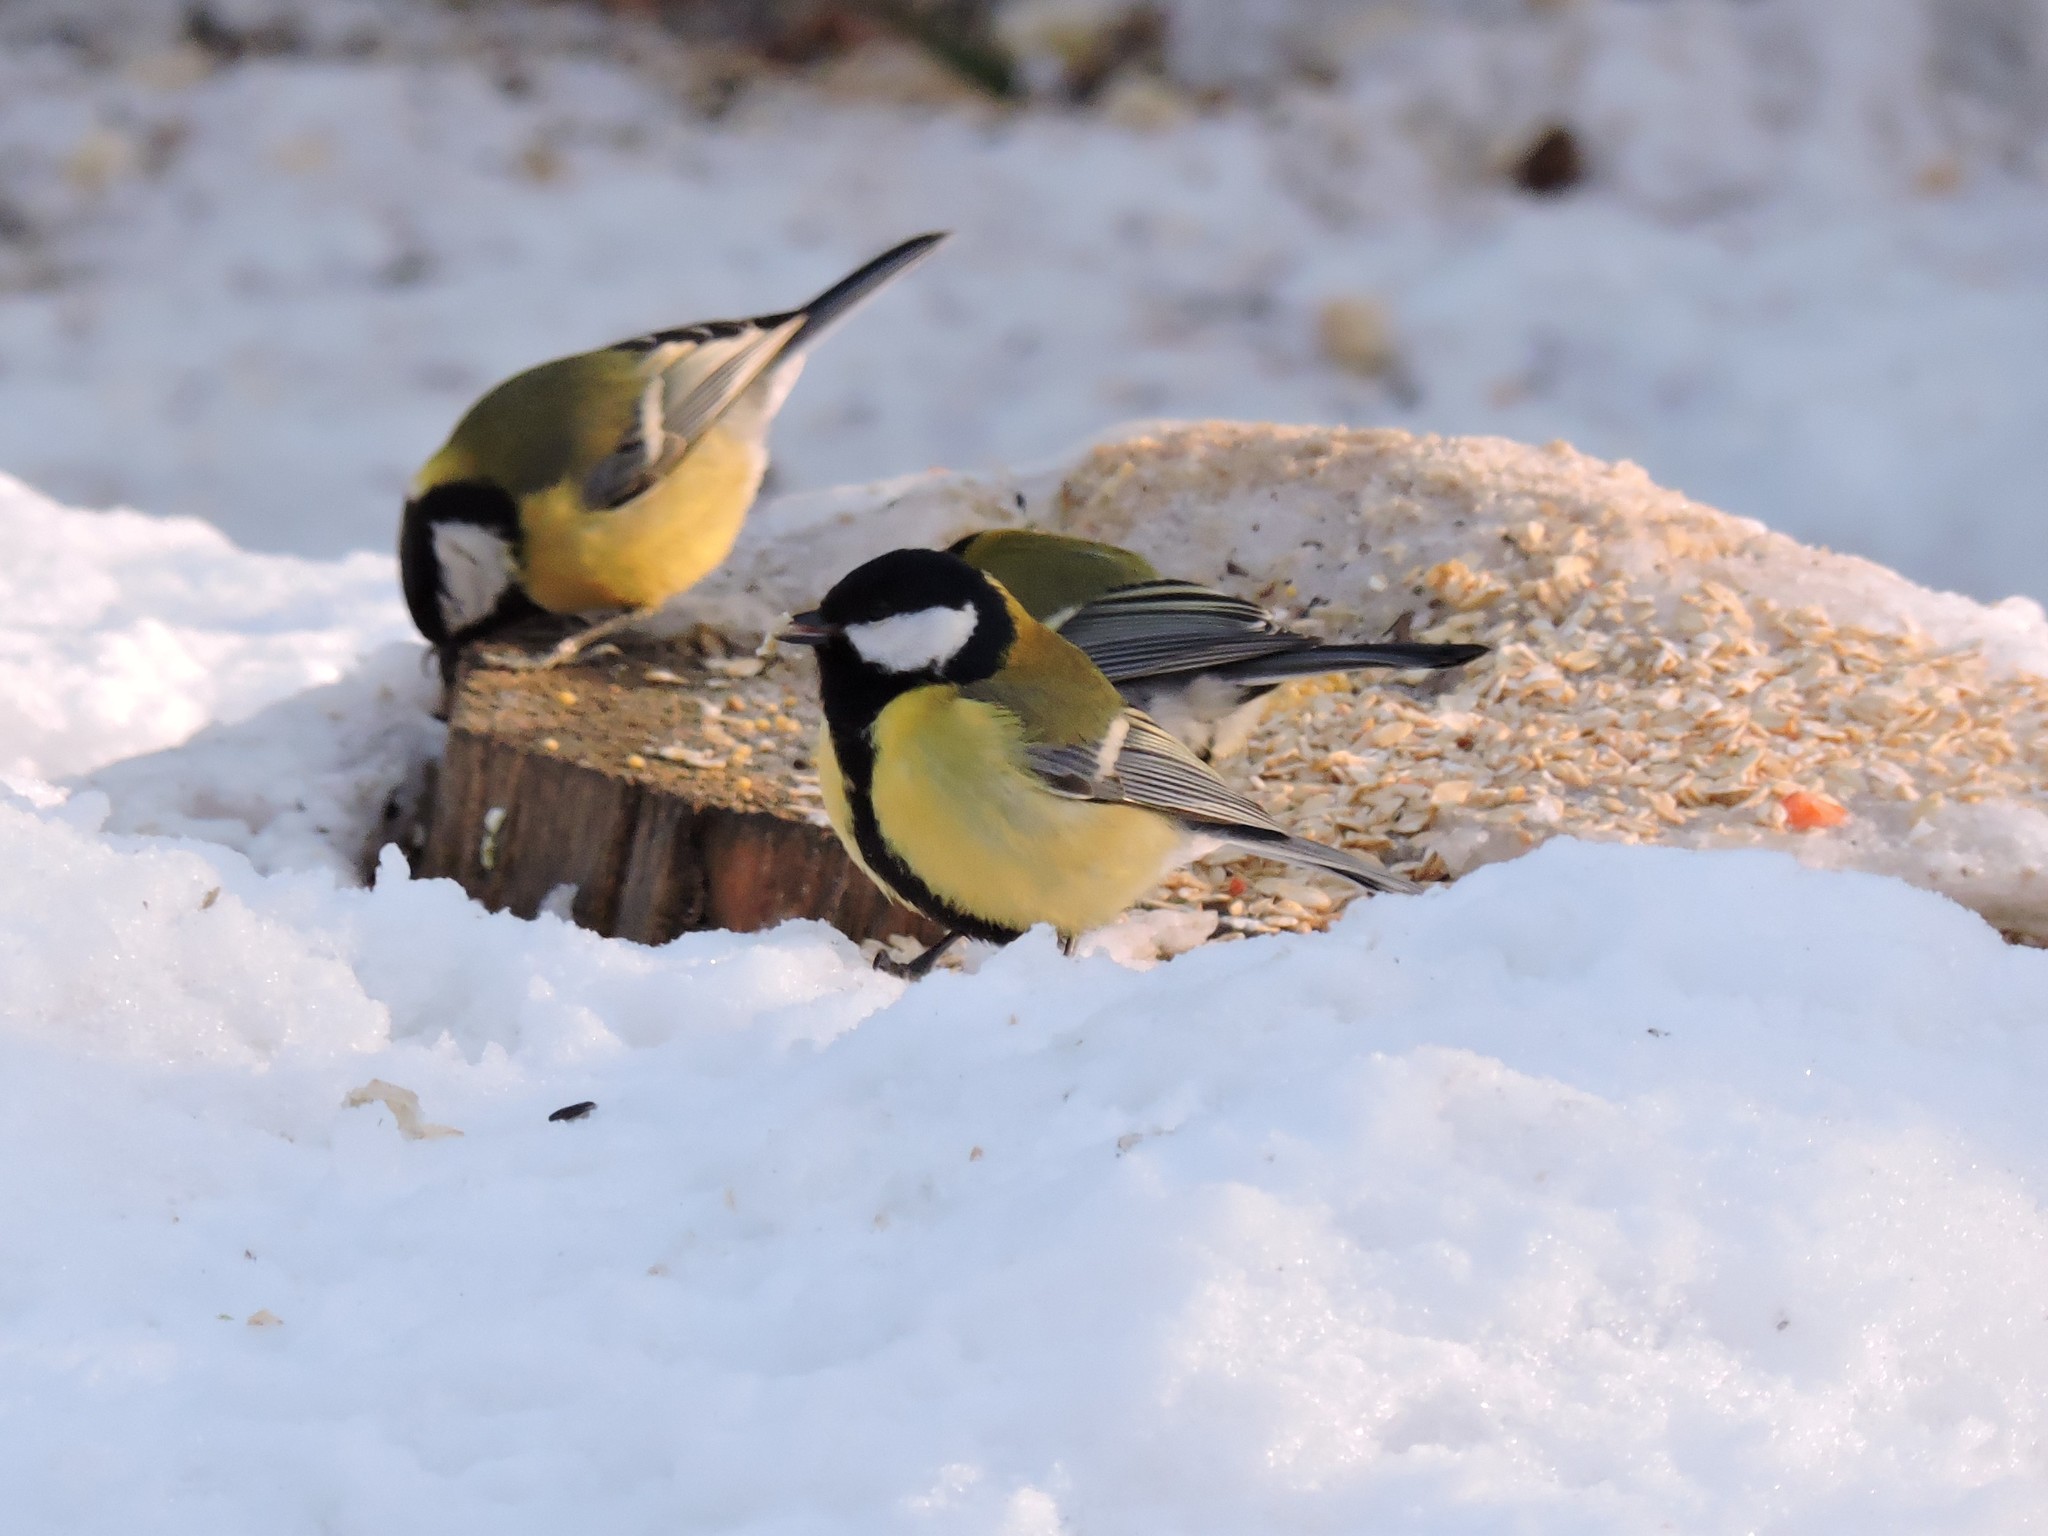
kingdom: Animalia
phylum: Chordata
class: Aves
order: Passeriformes
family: Paridae
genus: Parus
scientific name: Parus major
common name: Great tit
